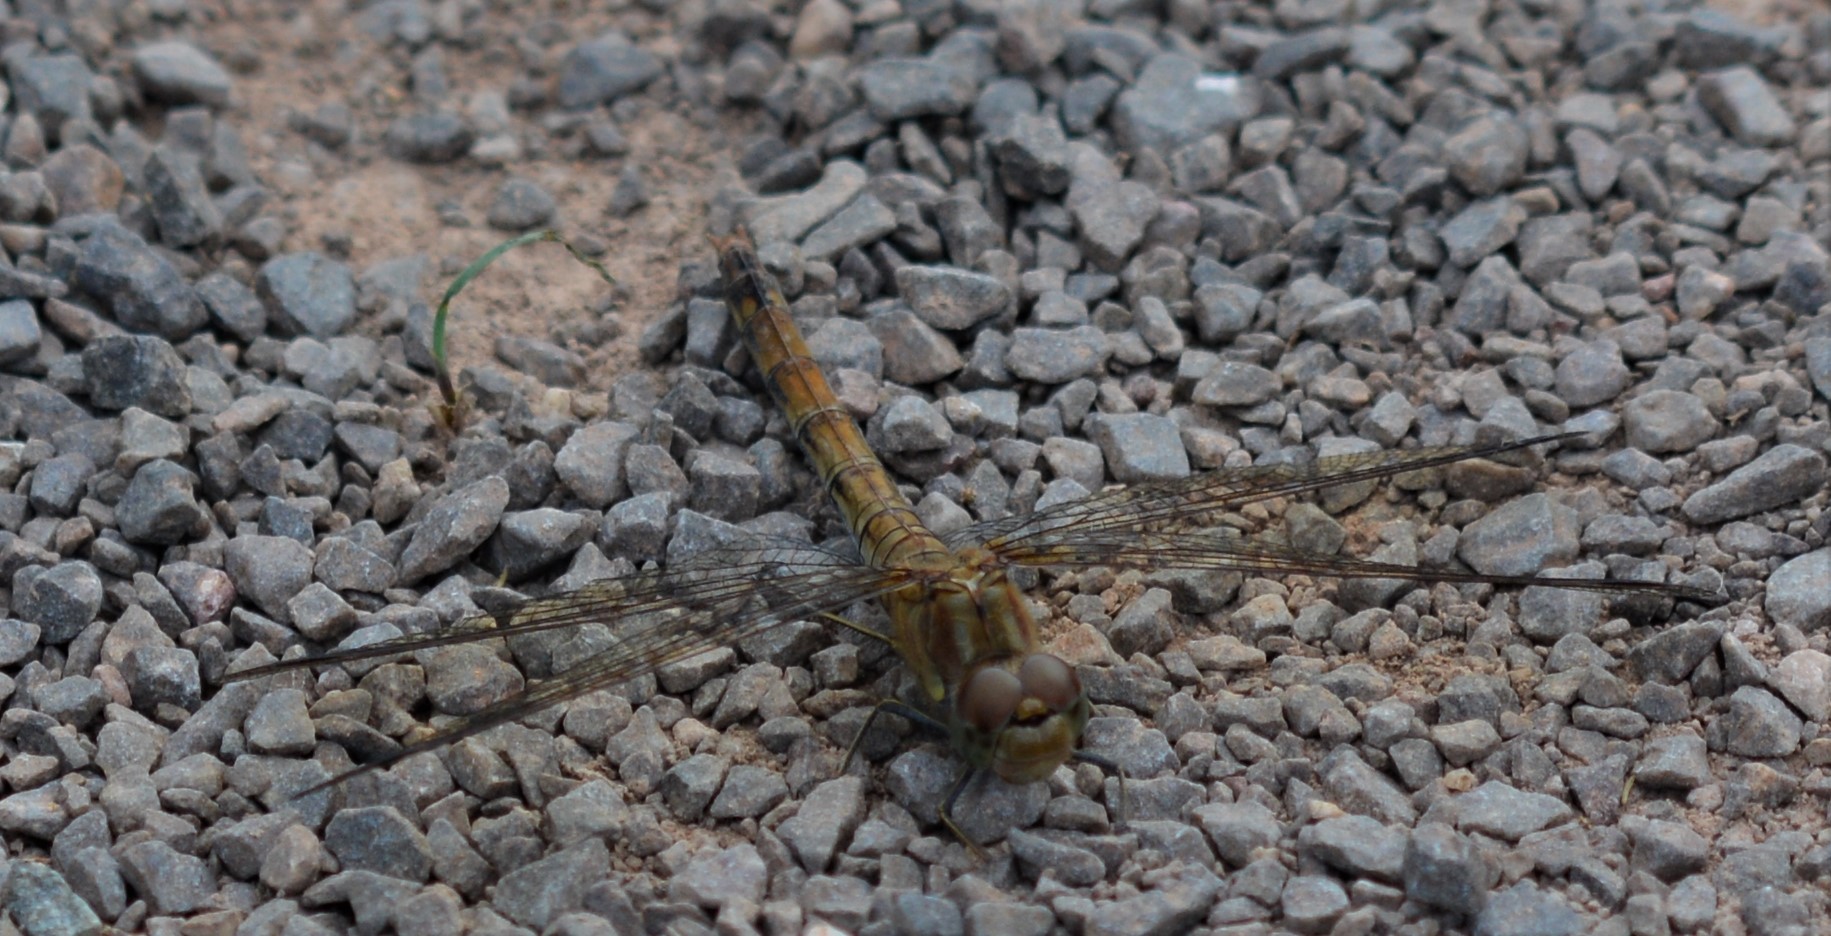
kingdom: Animalia
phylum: Arthropoda
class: Insecta
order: Odonata
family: Libellulidae
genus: Sympetrum
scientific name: Sympetrum striolatum
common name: Common darter
